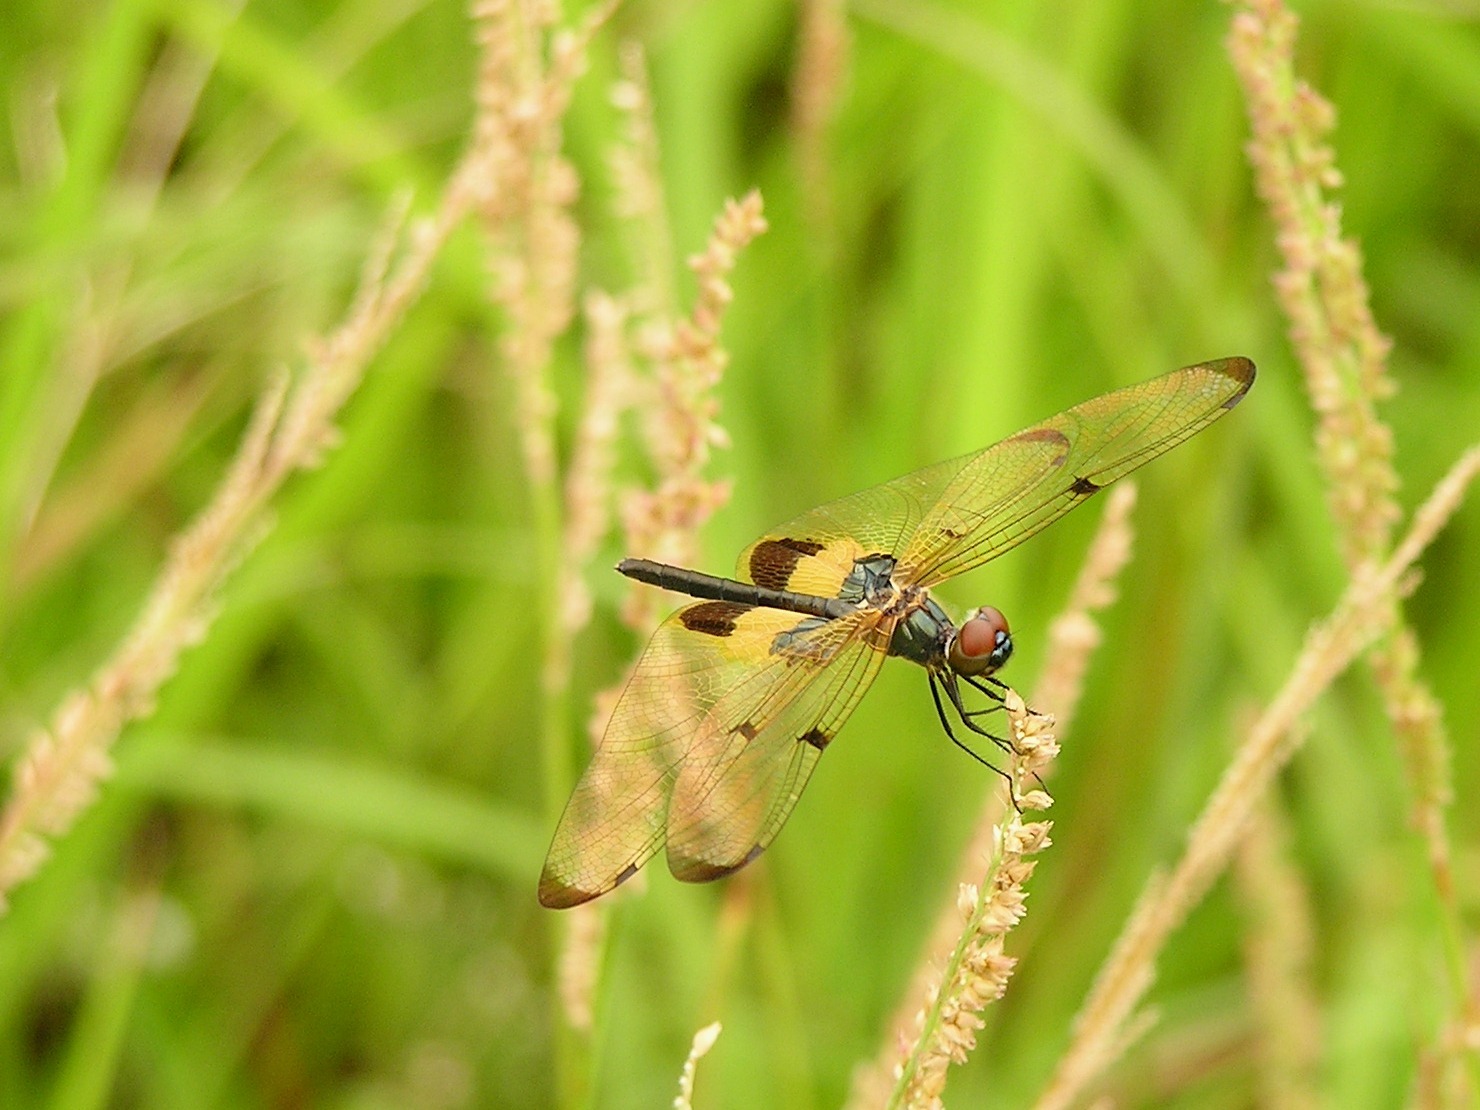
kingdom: Animalia
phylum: Arthropoda
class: Insecta
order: Odonata
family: Libellulidae
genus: Rhyothemis
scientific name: Rhyothemis phyllis
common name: Yellow-barred flutterer
